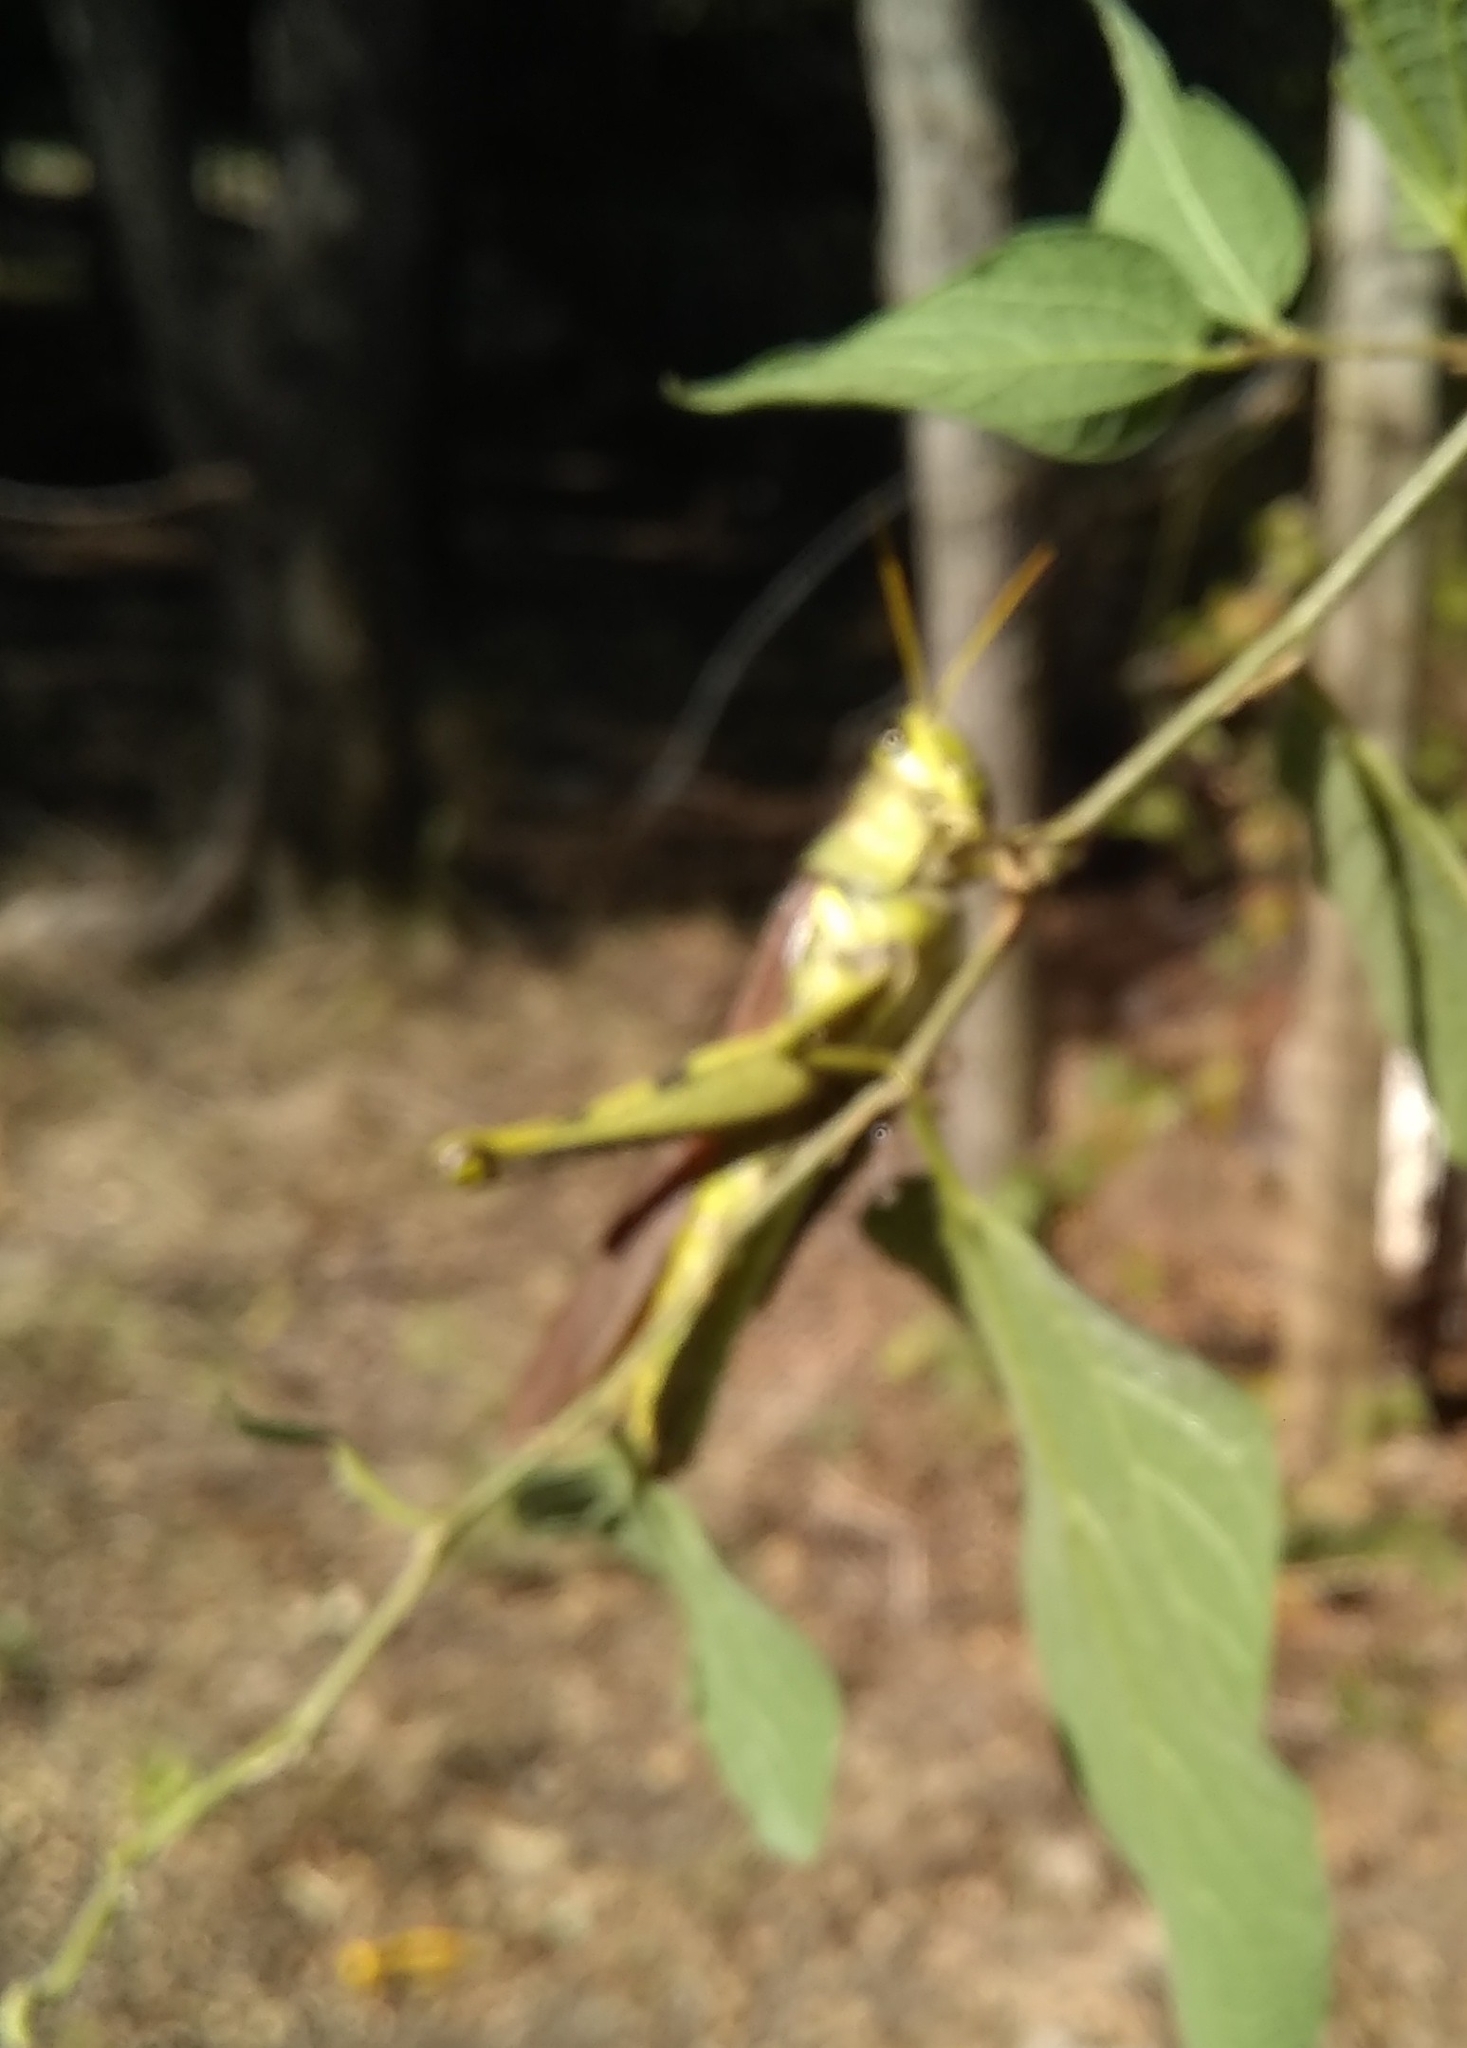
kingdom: Animalia
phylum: Arthropoda
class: Insecta
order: Orthoptera
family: Acrididae
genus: Schistocerca
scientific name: Schistocerca obscura
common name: Obscure bird grasshopper
